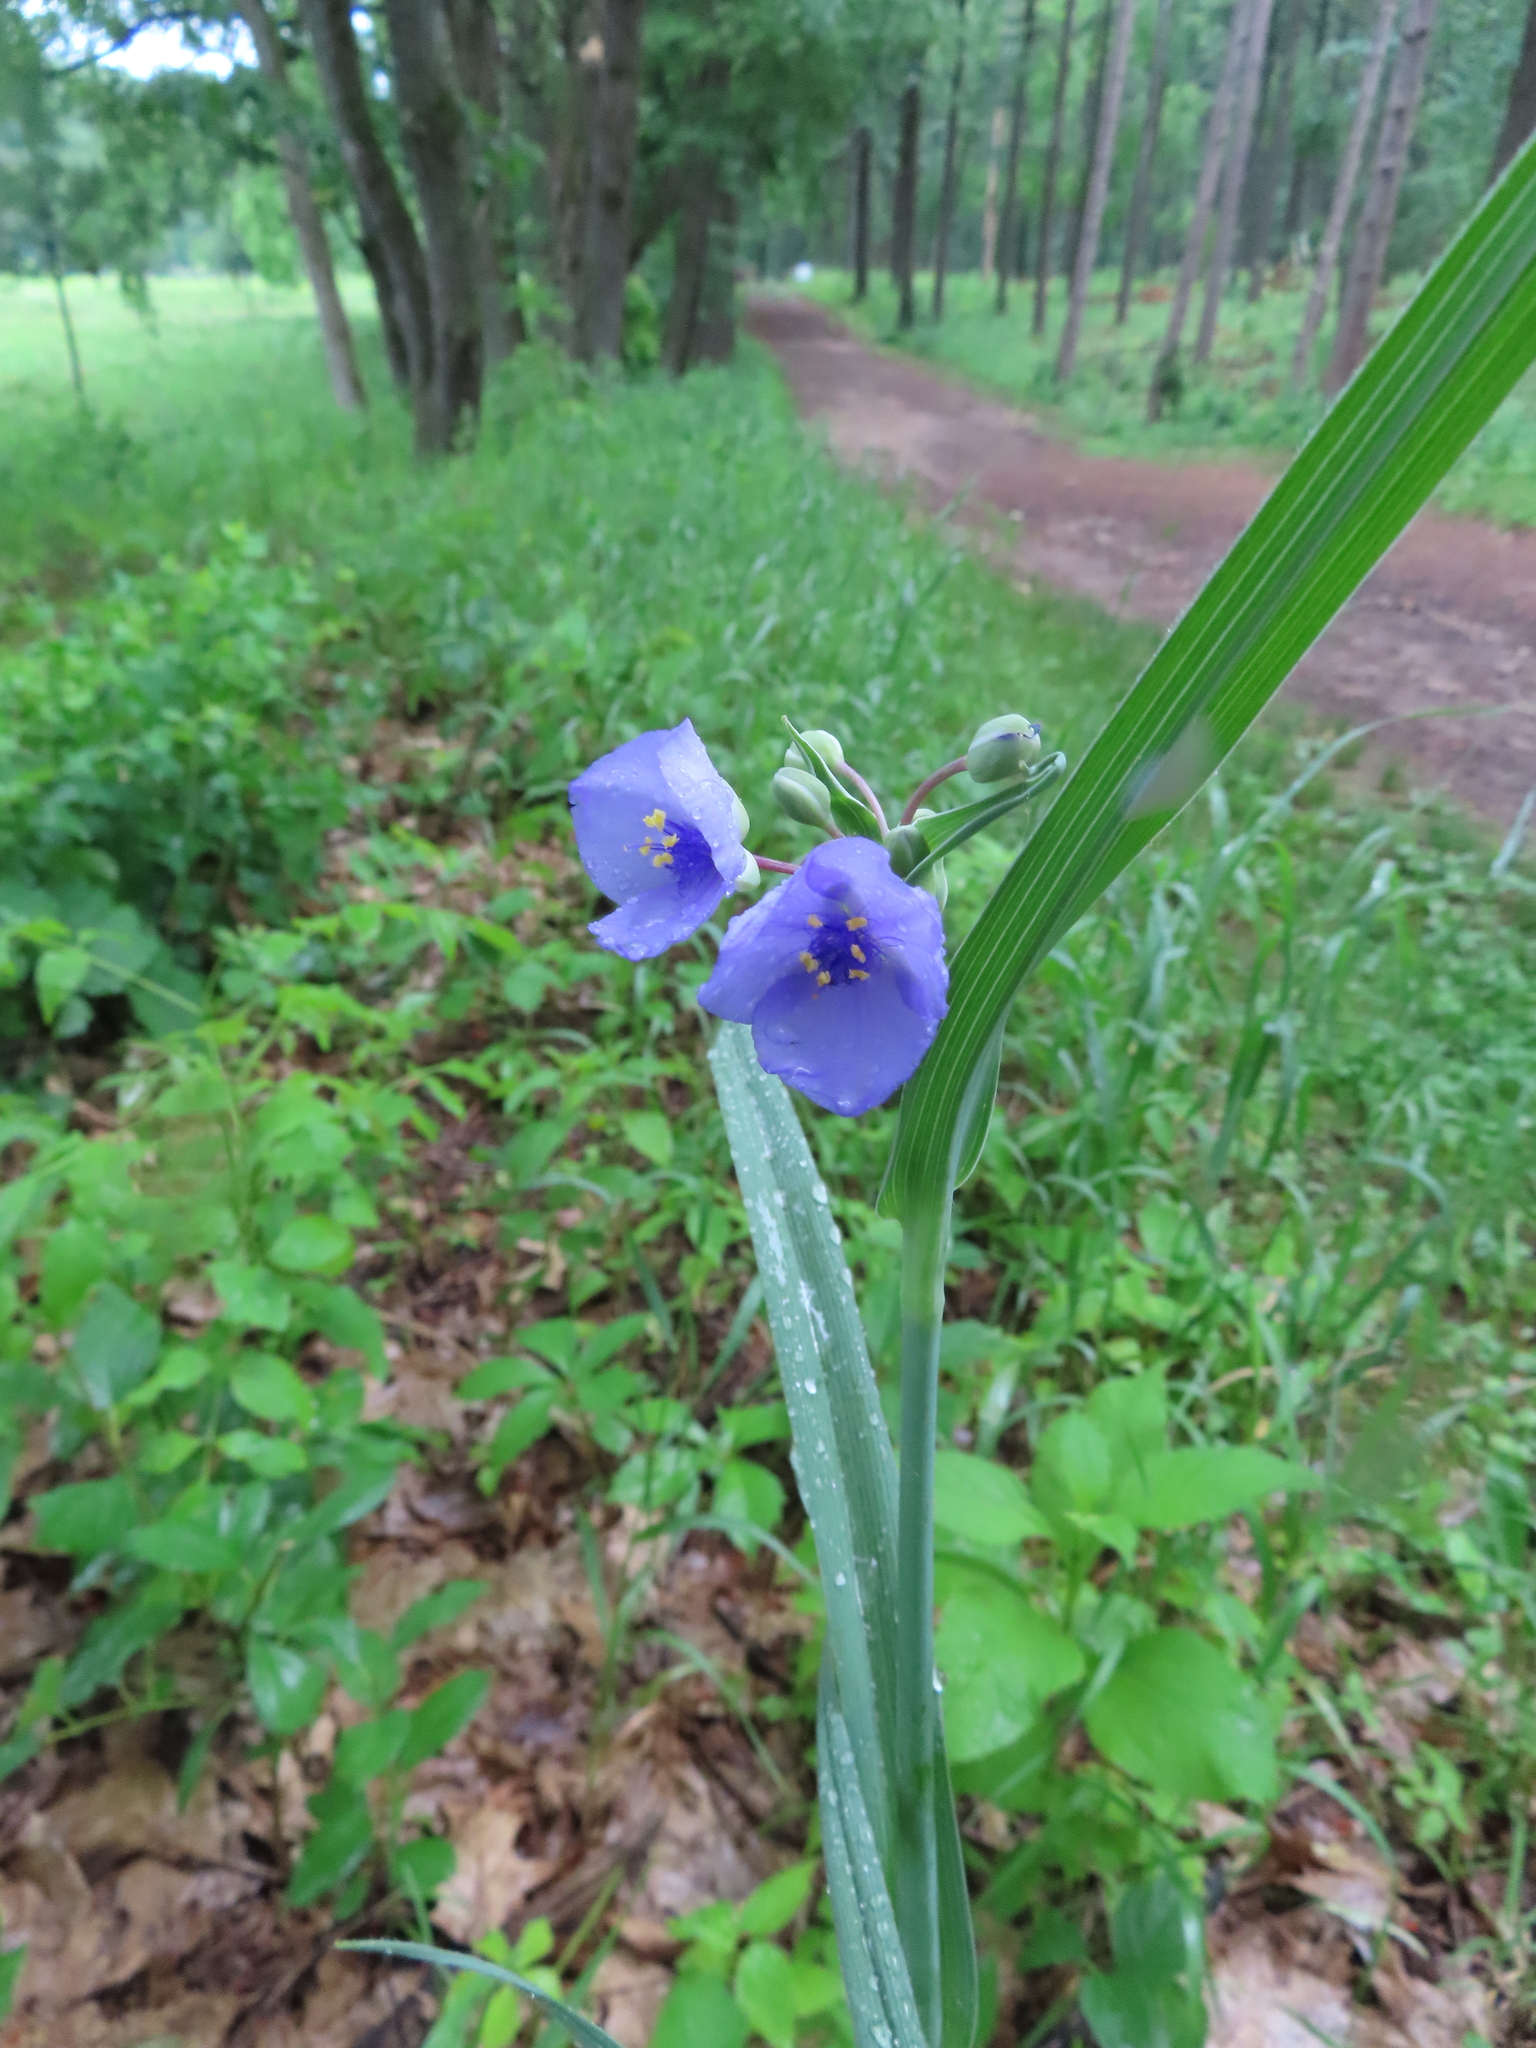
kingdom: Plantae
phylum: Tracheophyta
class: Liliopsida
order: Commelinales
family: Commelinaceae
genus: Tradescantia
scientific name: Tradescantia ohiensis
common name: Ohio spiderwort
